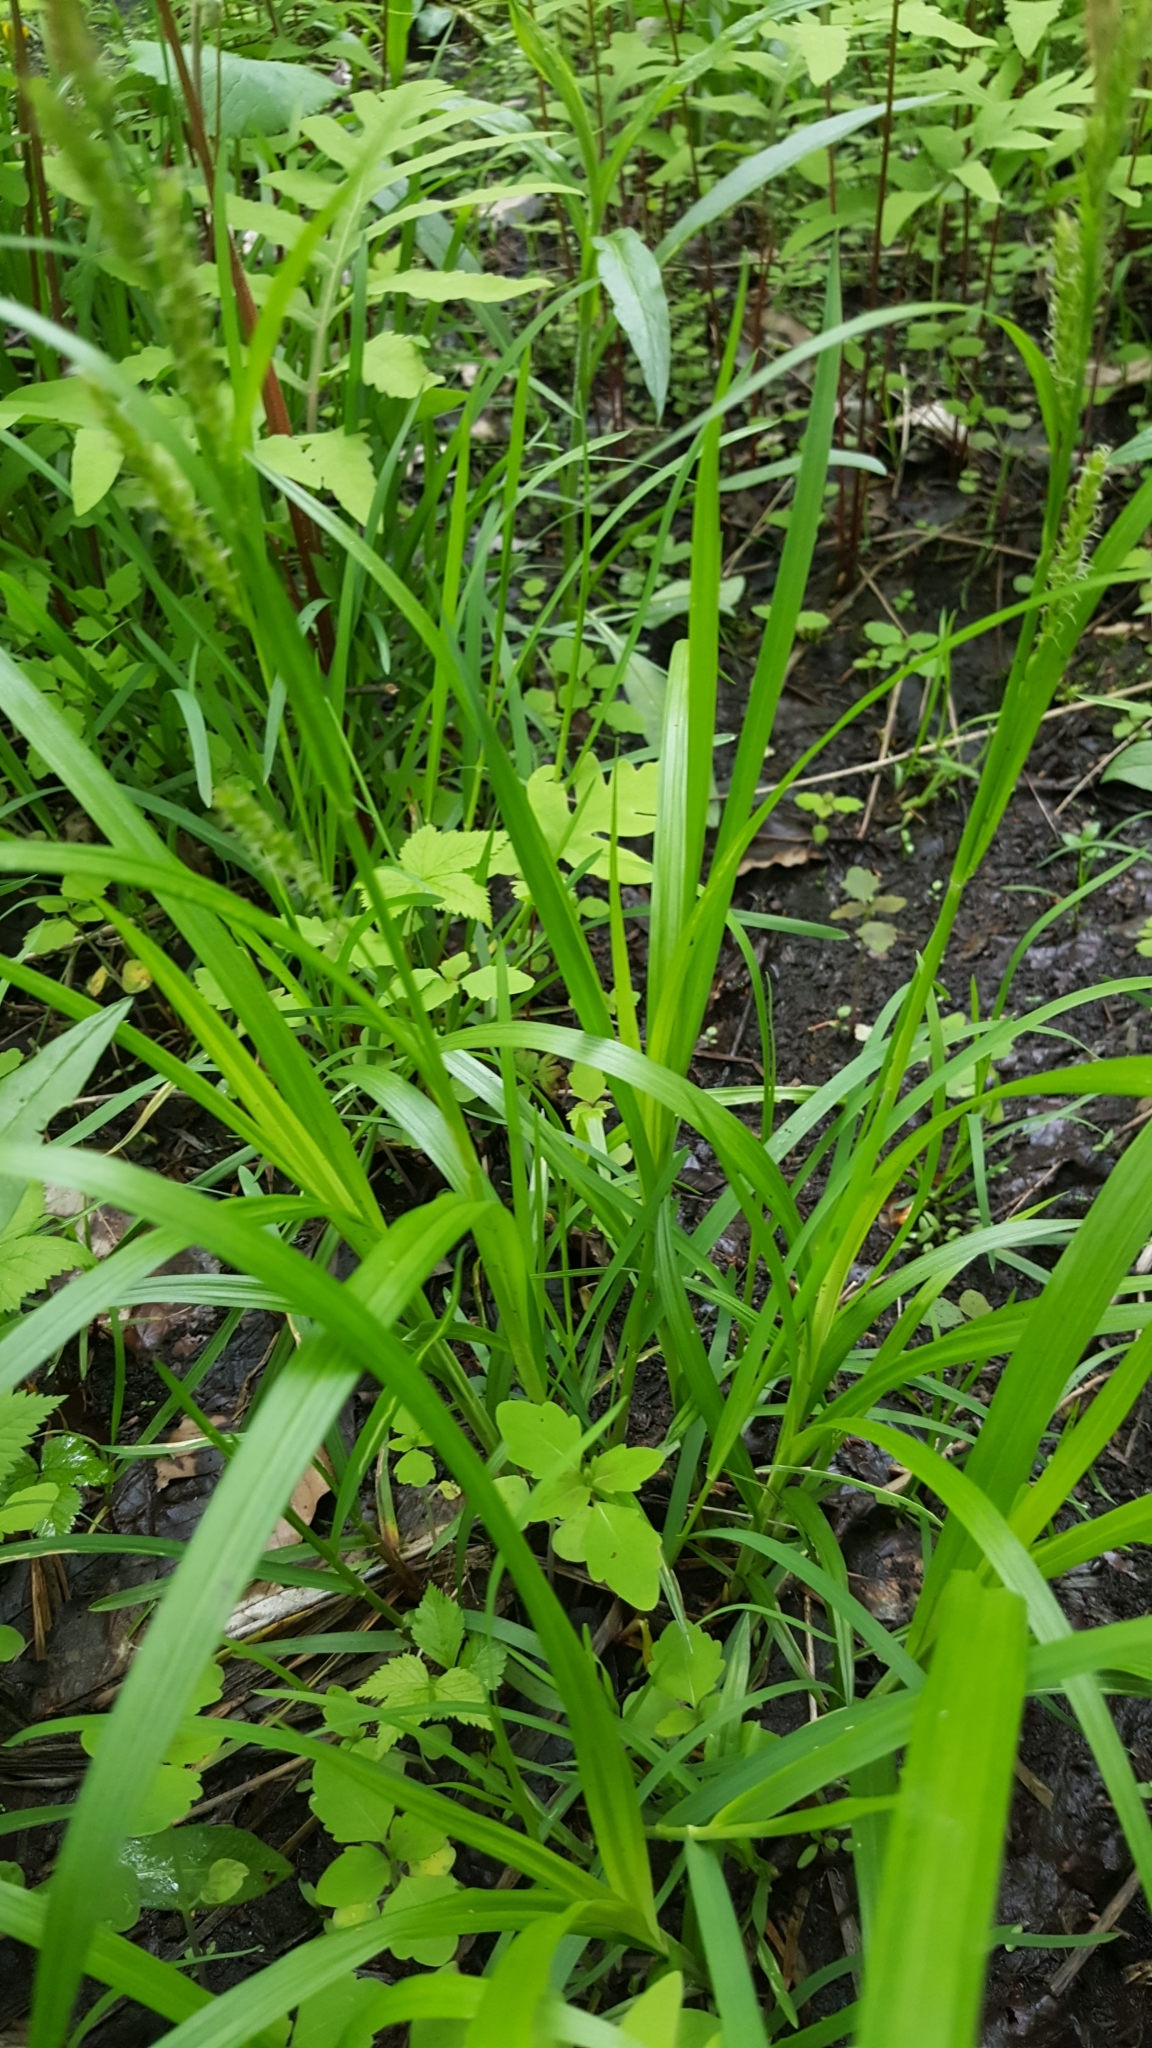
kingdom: Plantae
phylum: Tracheophyta
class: Liliopsida
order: Poales
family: Cyperaceae
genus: Carex
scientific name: Carex scabrata
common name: Eastern rough sedge
